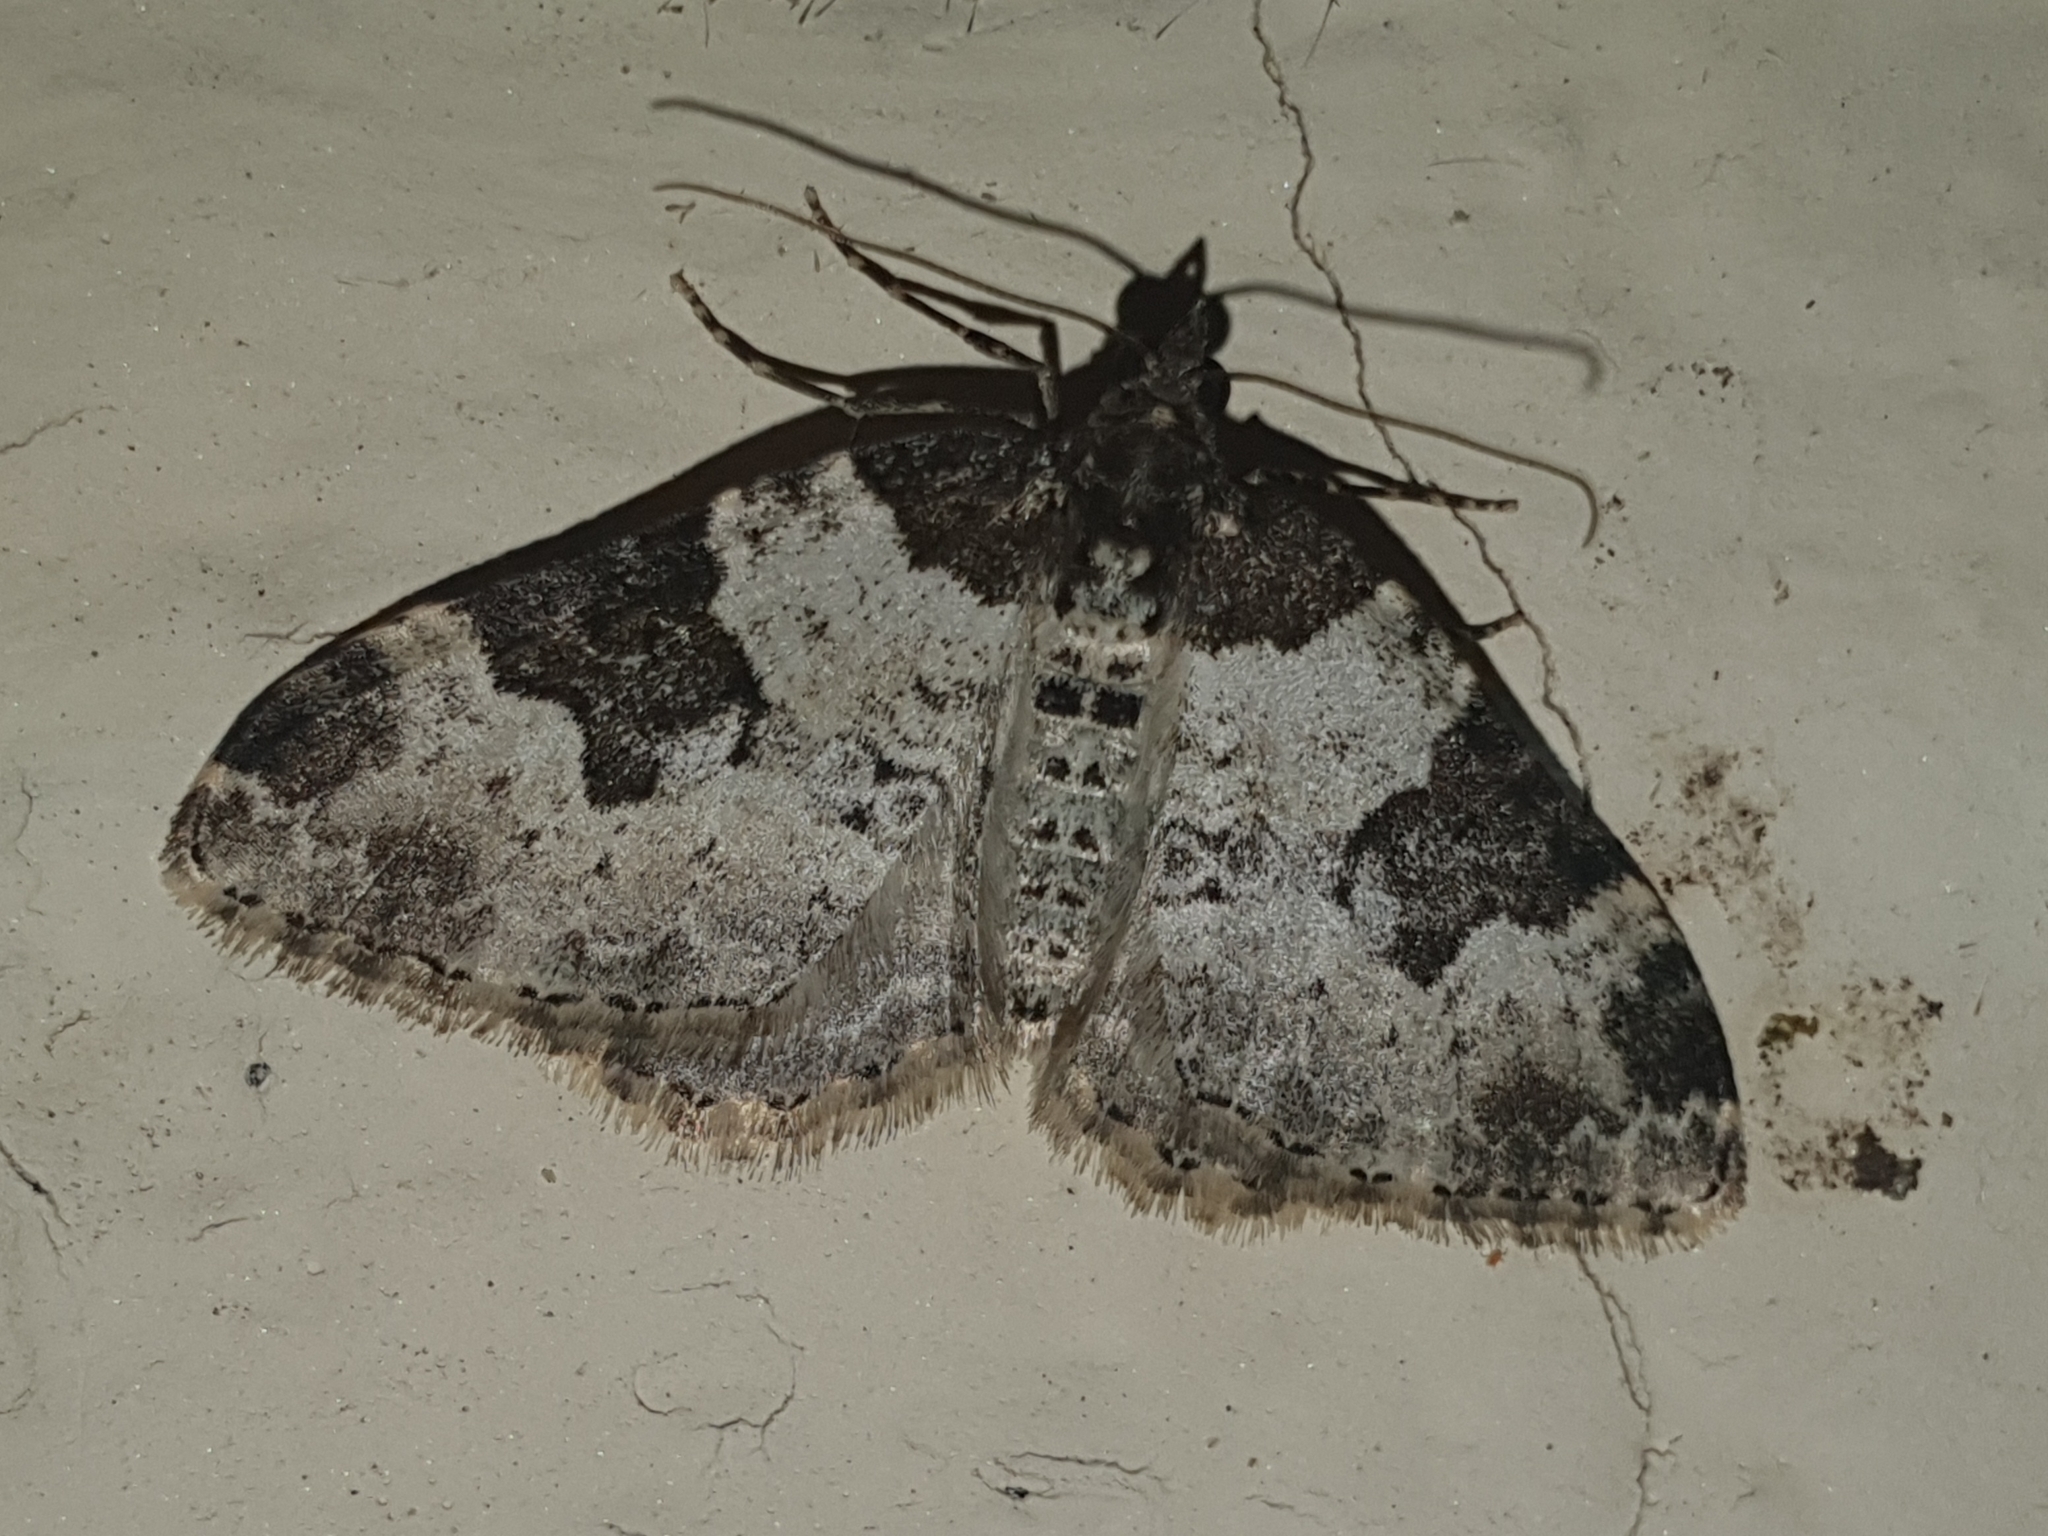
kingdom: Animalia
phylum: Arthropoda
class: Insecta
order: Lepidoptera
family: Geometridae
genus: Xanthorhoe
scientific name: Xanthorhoe fluctuata
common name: Garden carpet
